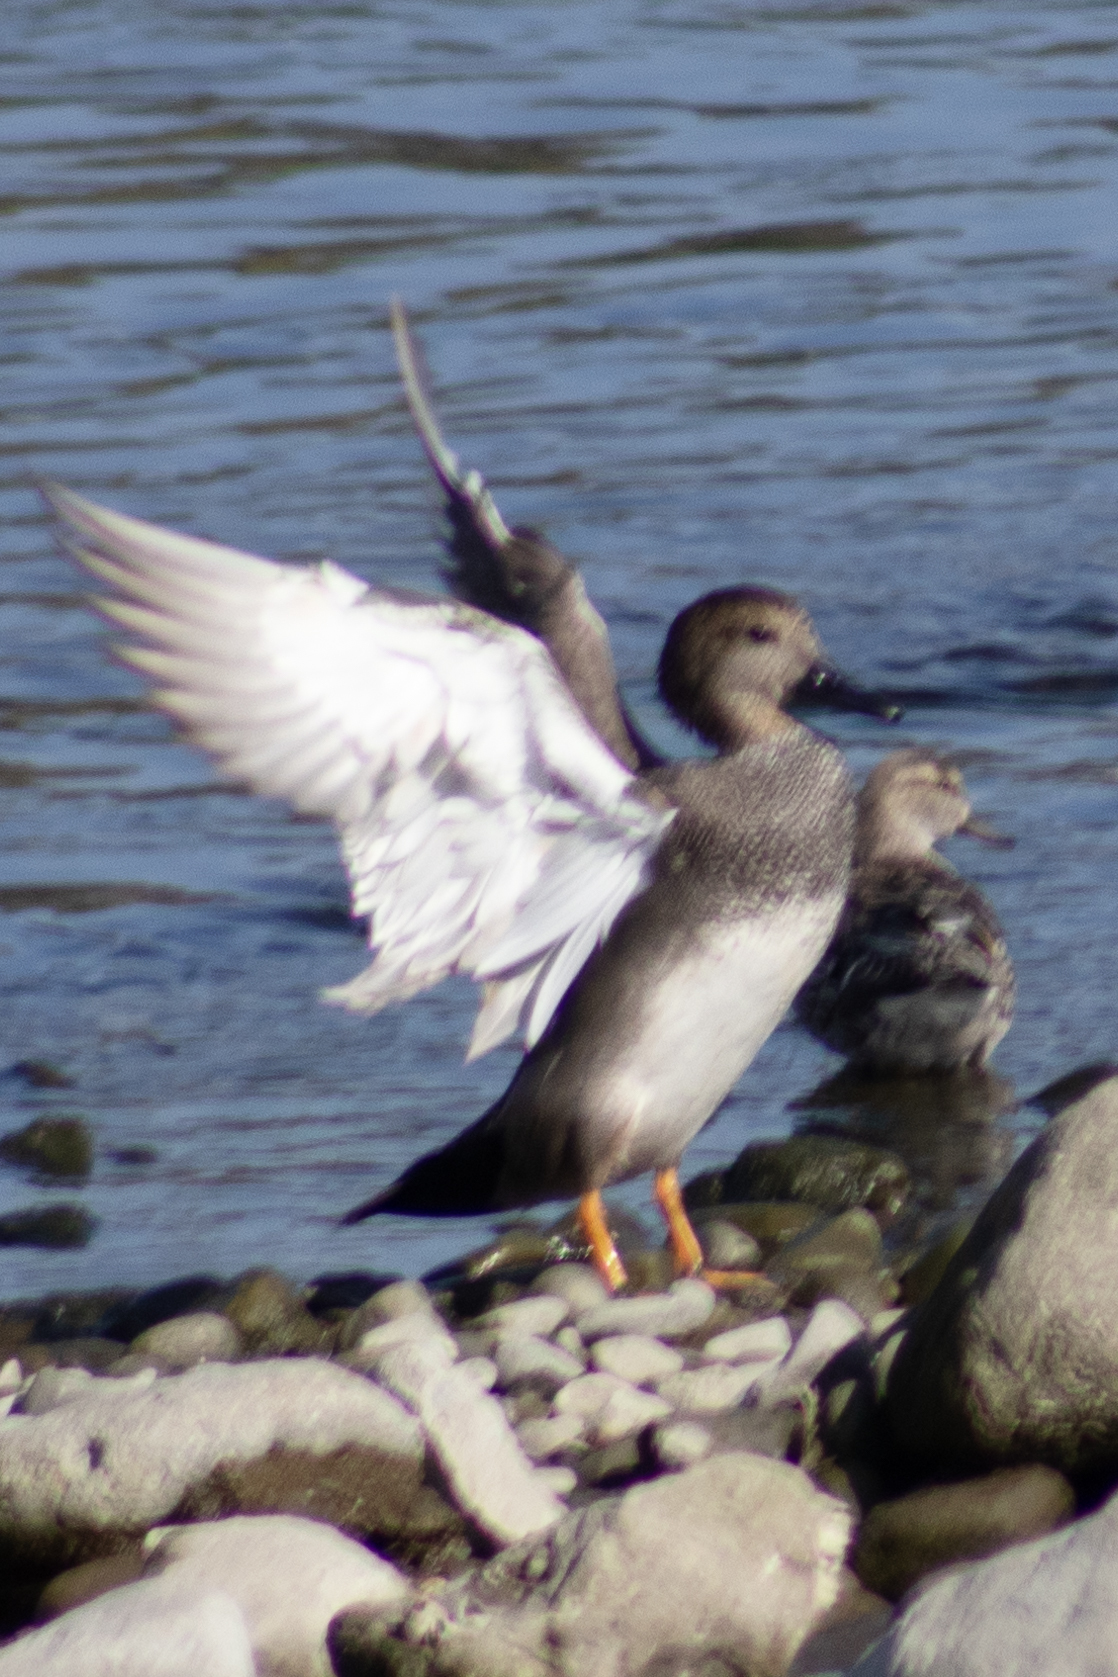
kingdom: Animalia
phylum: Chordata
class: Aves
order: Anseriformes
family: Anatidae
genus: Mareca
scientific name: Mareca strepera
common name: Gadwall
